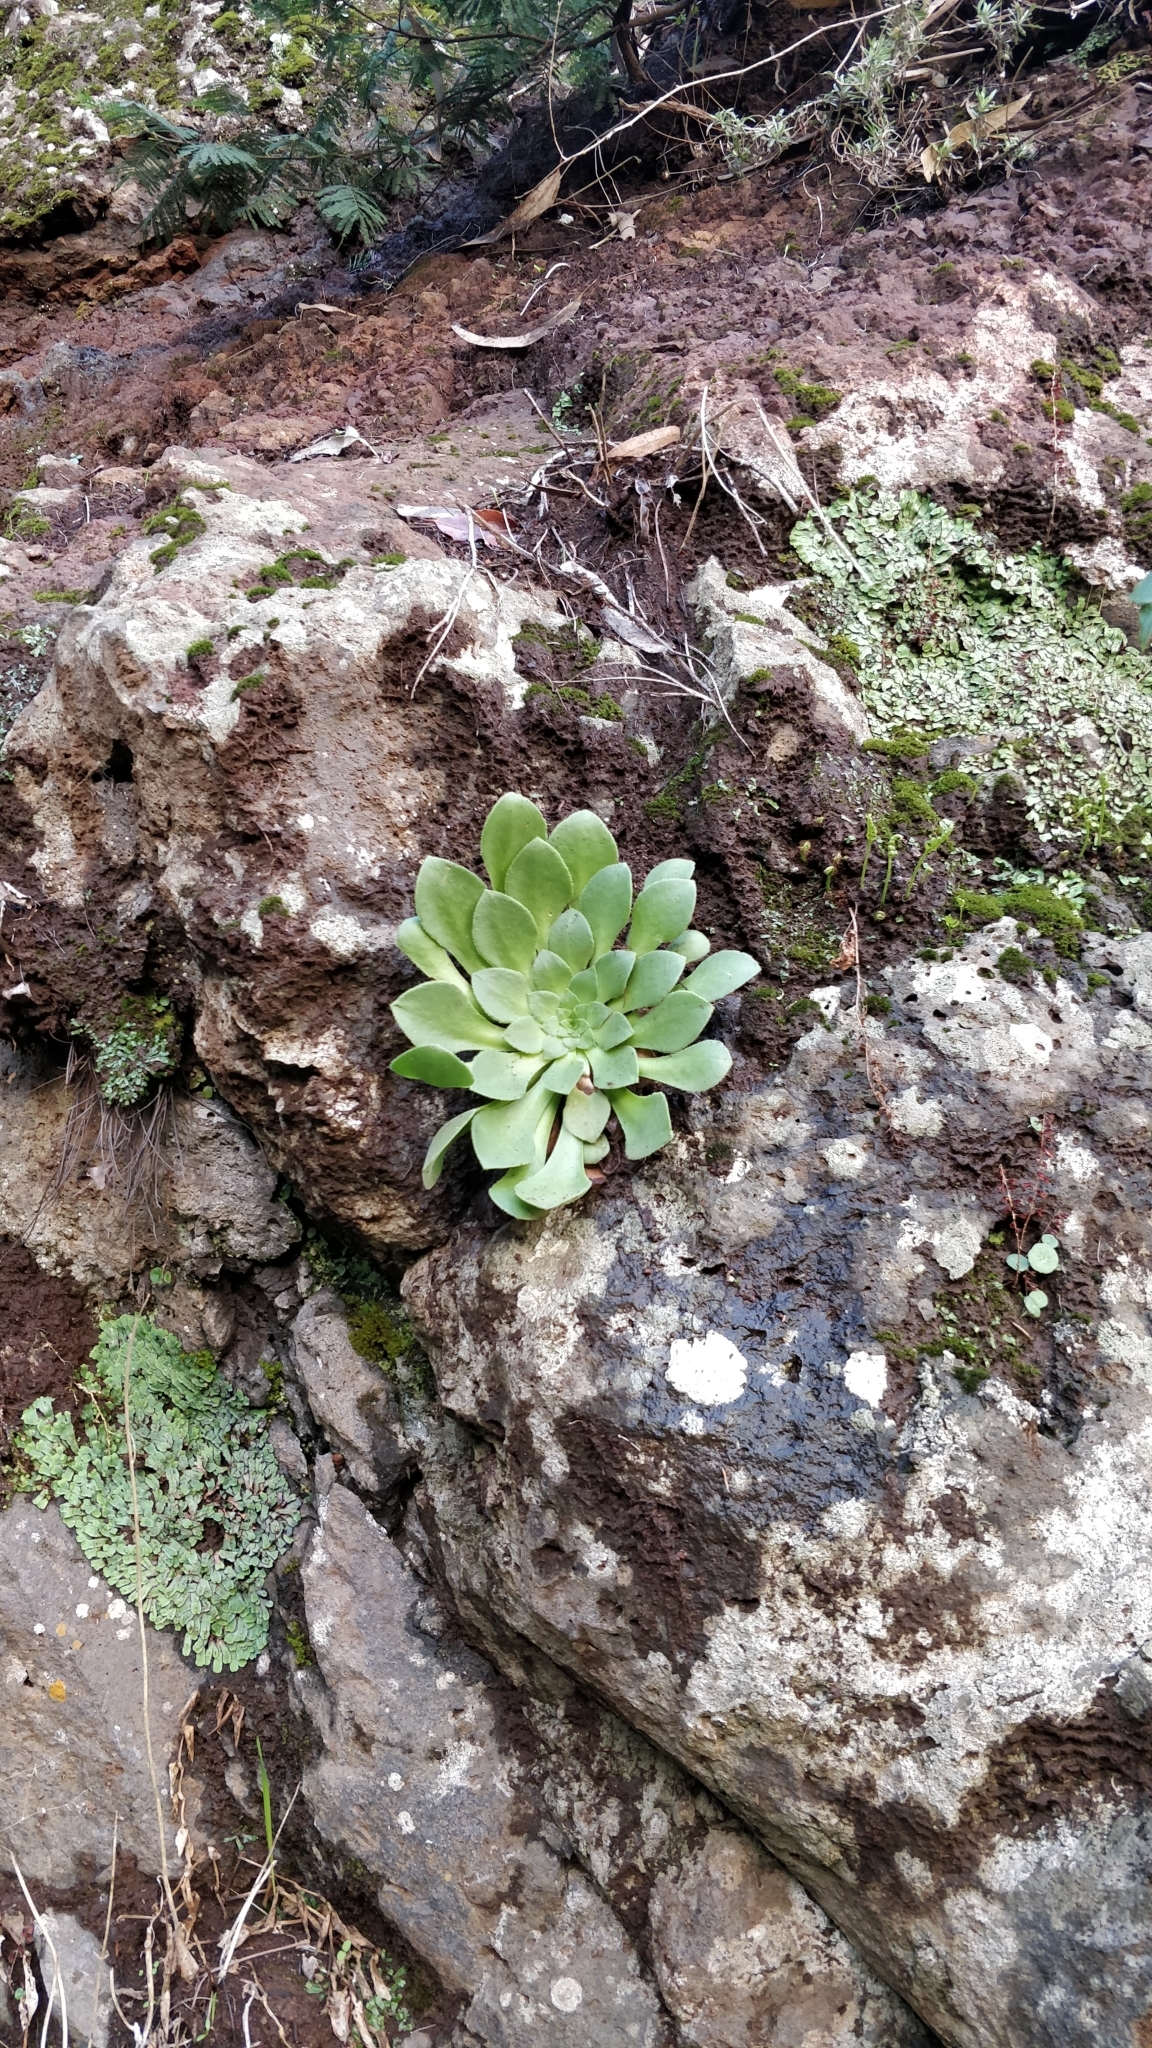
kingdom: Plantae
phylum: Tracheophyta
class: Magnoliopsida
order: Saxifragales
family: Crassulaceae
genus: Aeonium
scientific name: Aeonium glandulosum
